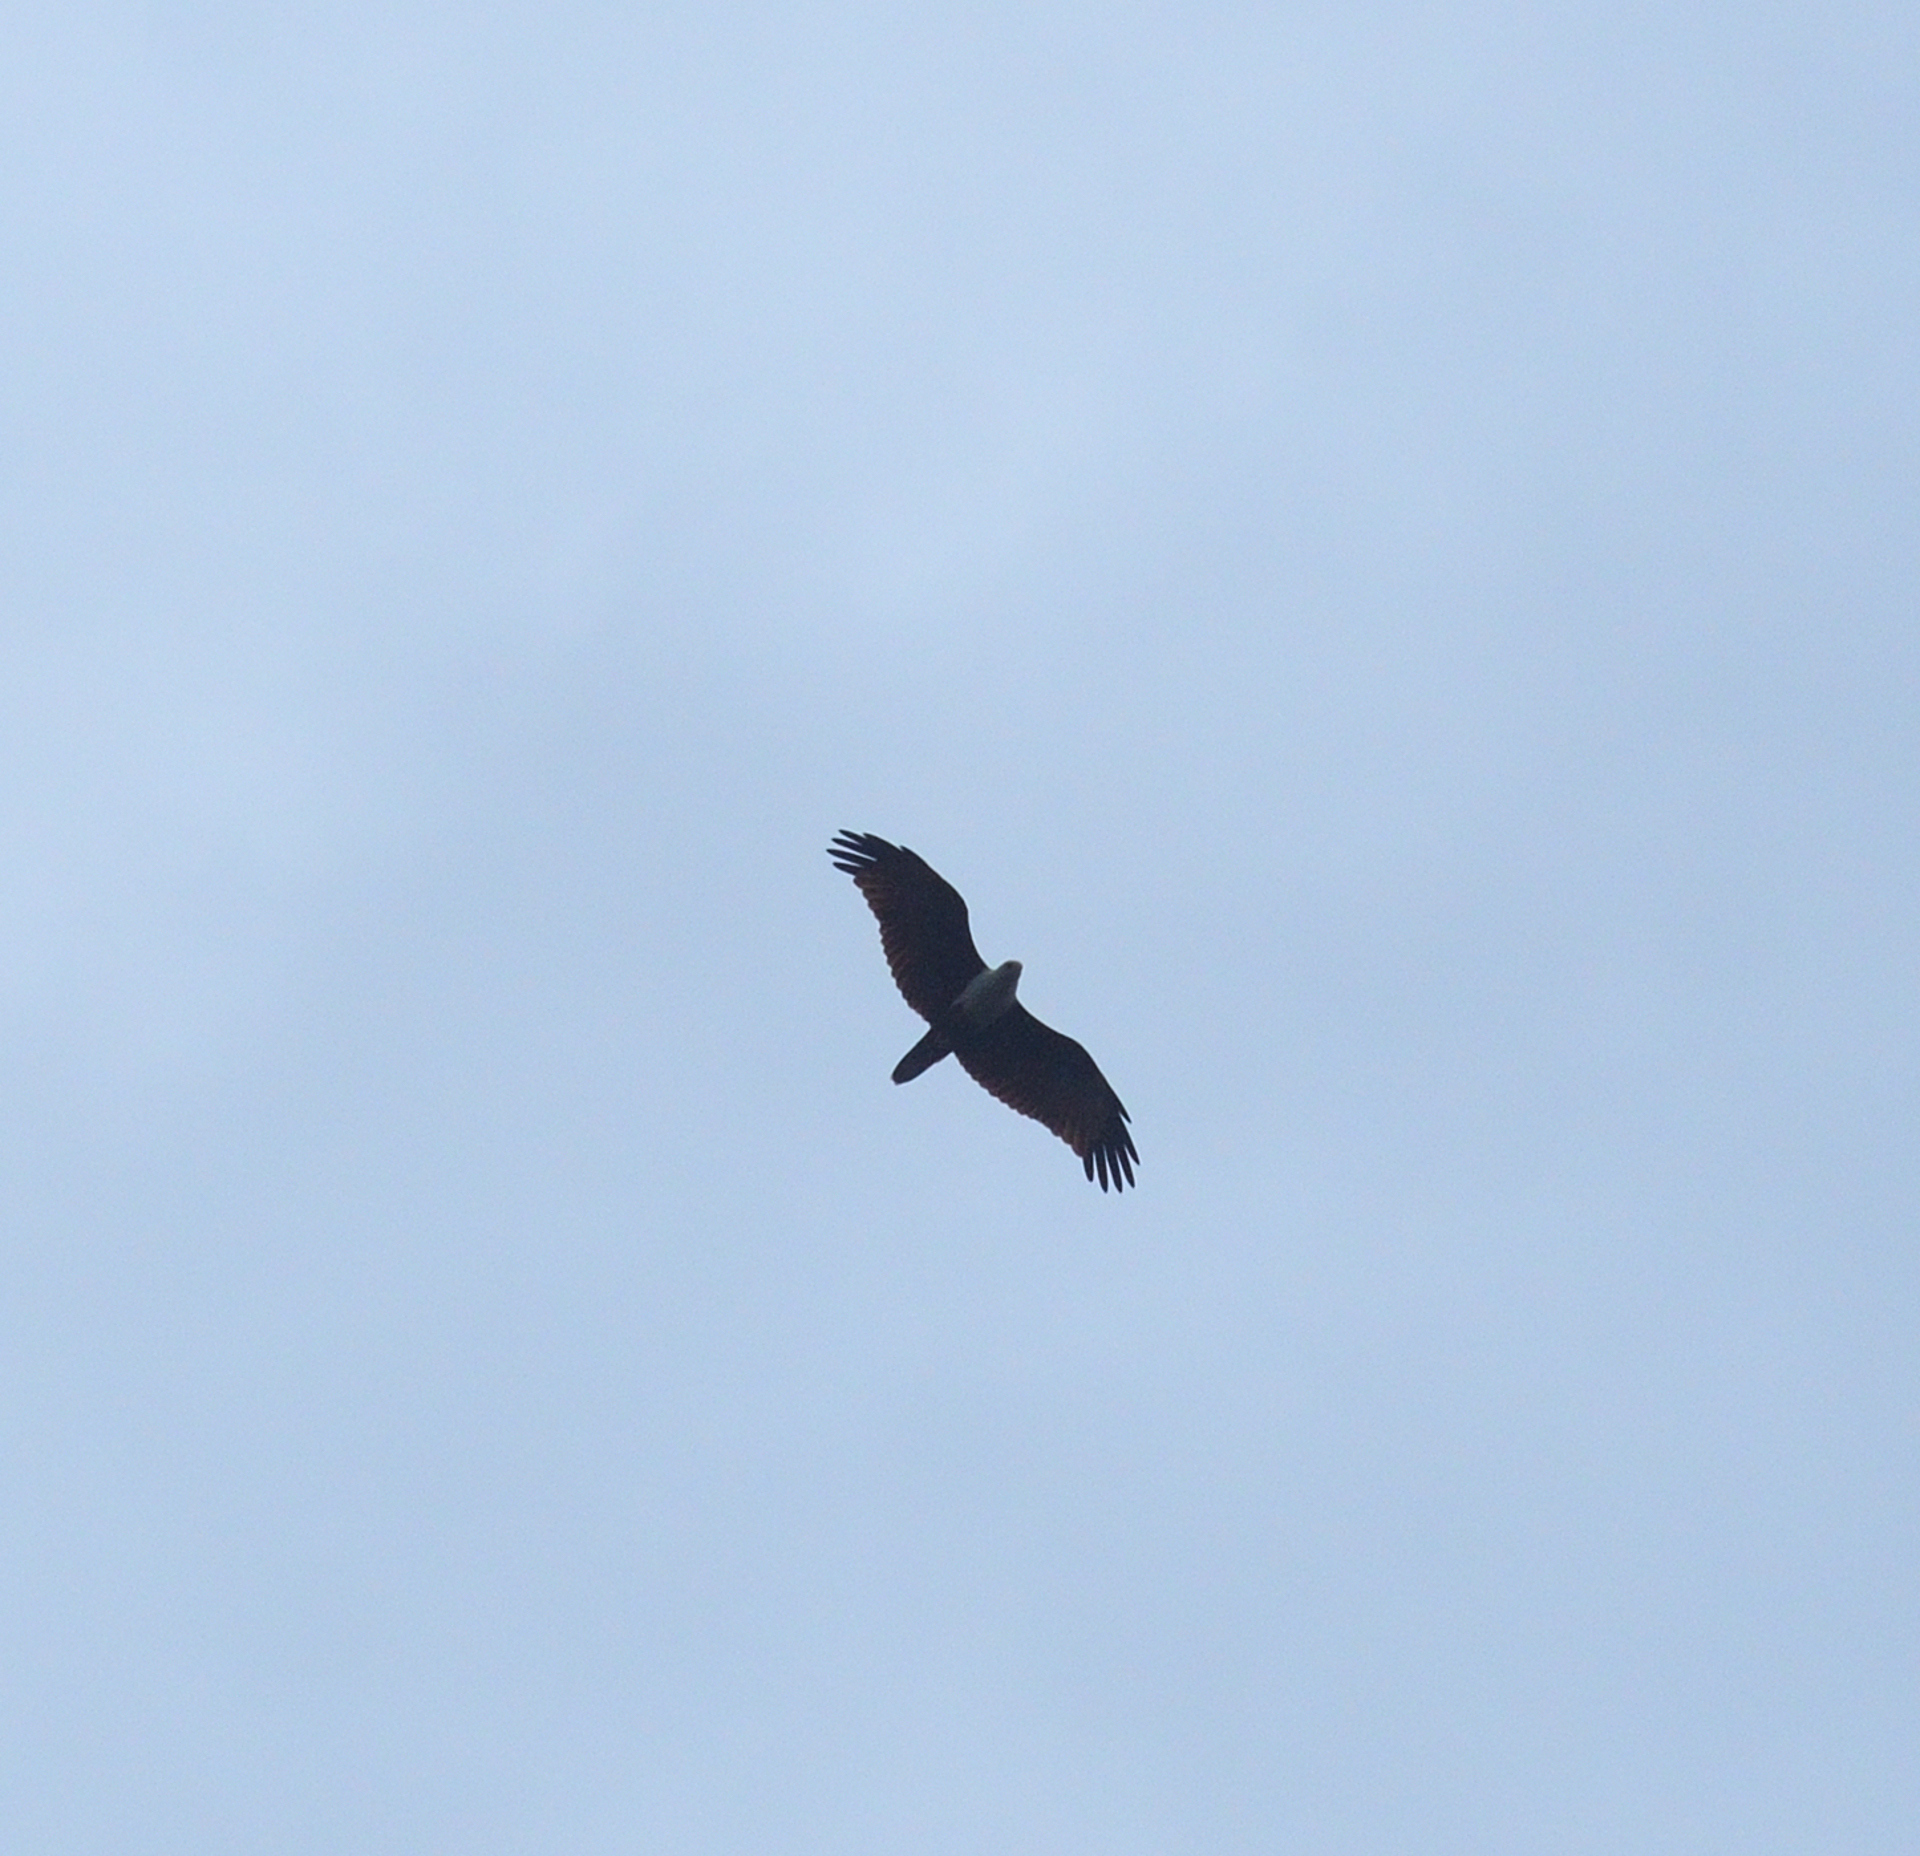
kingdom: Animalia
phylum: Chordata
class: Aves
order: Accipitriformes
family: Accipitridae
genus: Haliastur
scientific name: Haliastur indus
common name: Brahminy kite
